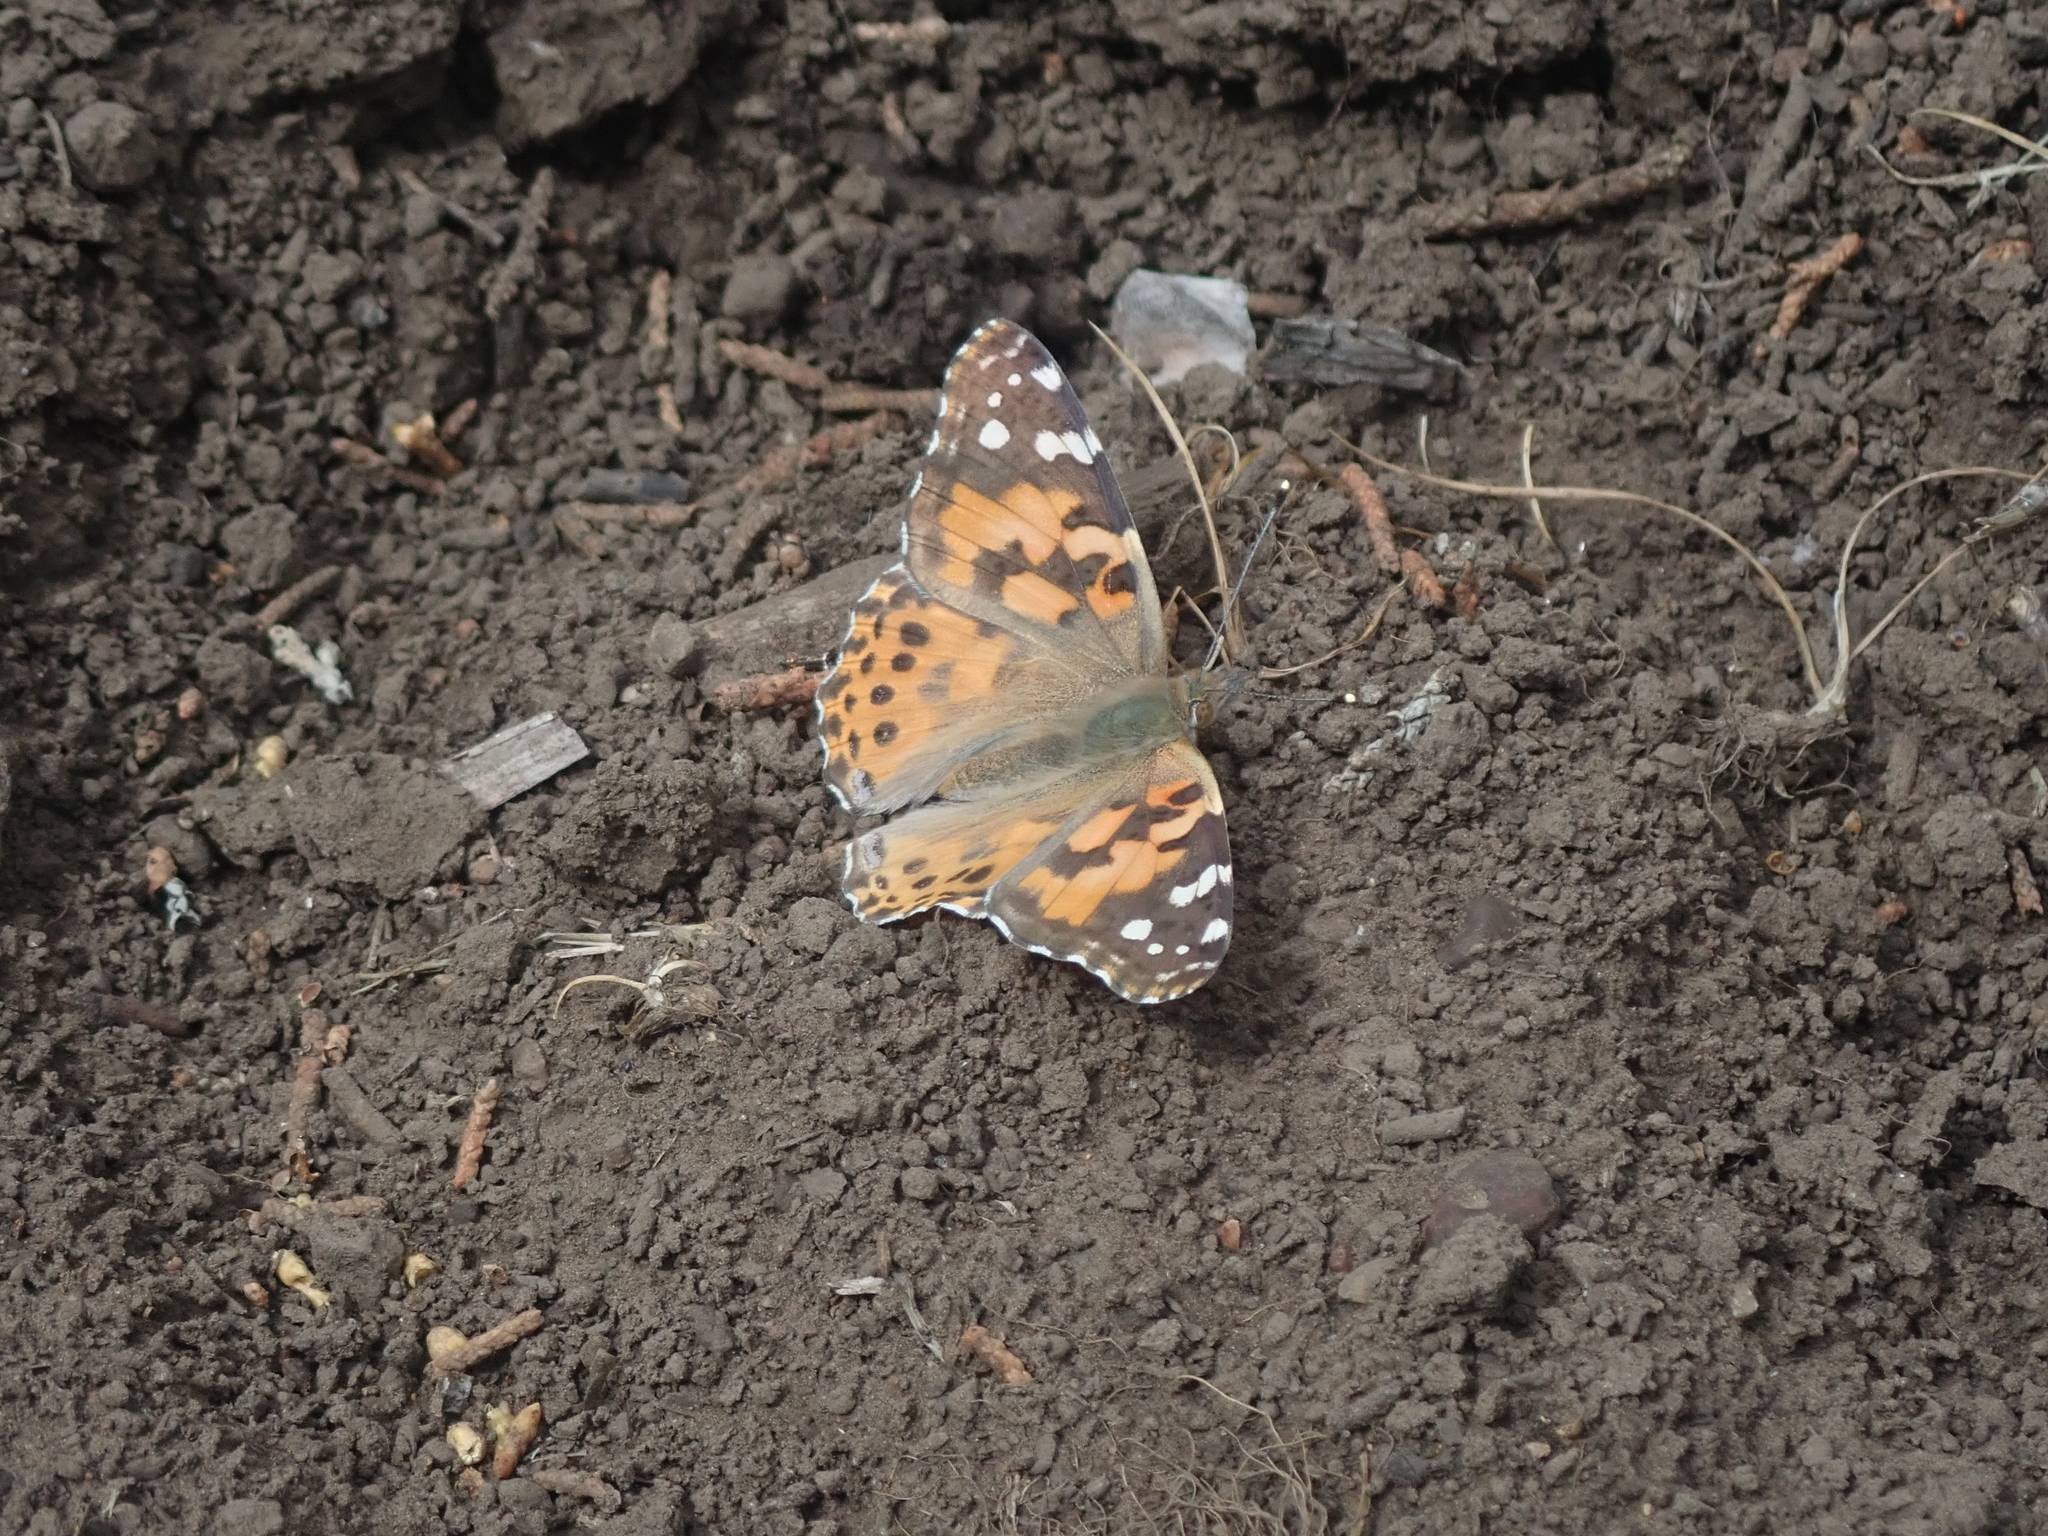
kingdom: Animalia
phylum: Arthropoda
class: Insecta
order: Lepidoptera
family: Nymphalidae
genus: Vanessa
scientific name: Vanessa cardui
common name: Painted lady
